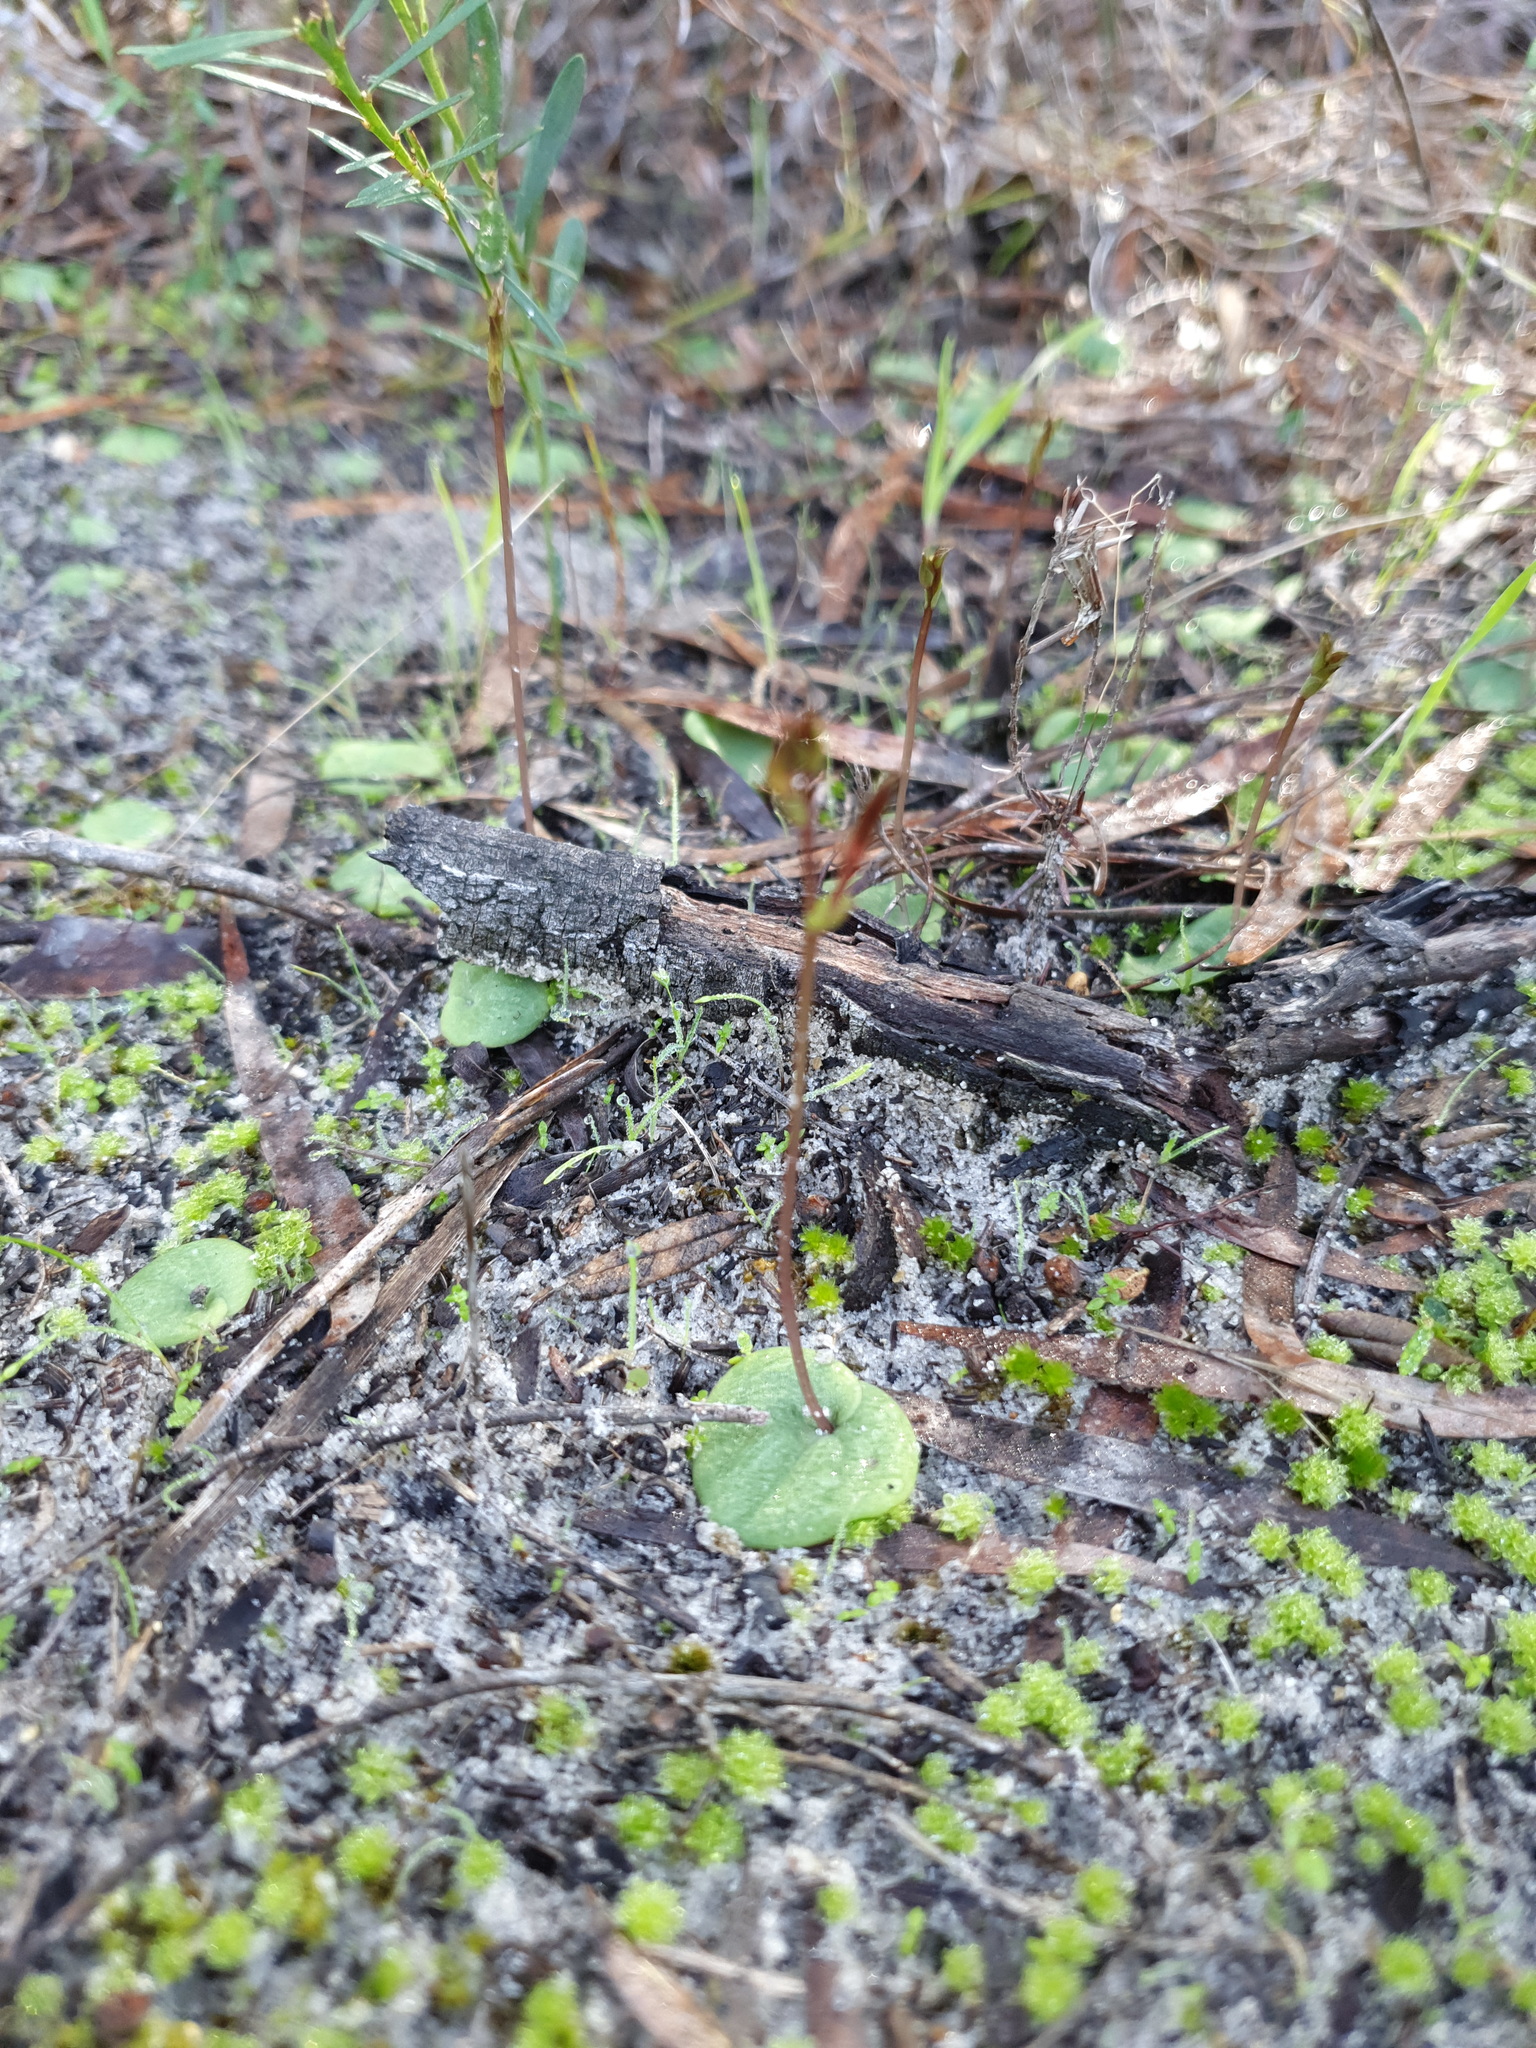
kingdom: Plantae
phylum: Tracheophyta
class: Liliopsida
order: Asparagales
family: Orchidaceae
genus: Cyrtostylis
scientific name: Cyrtostylis robusta
